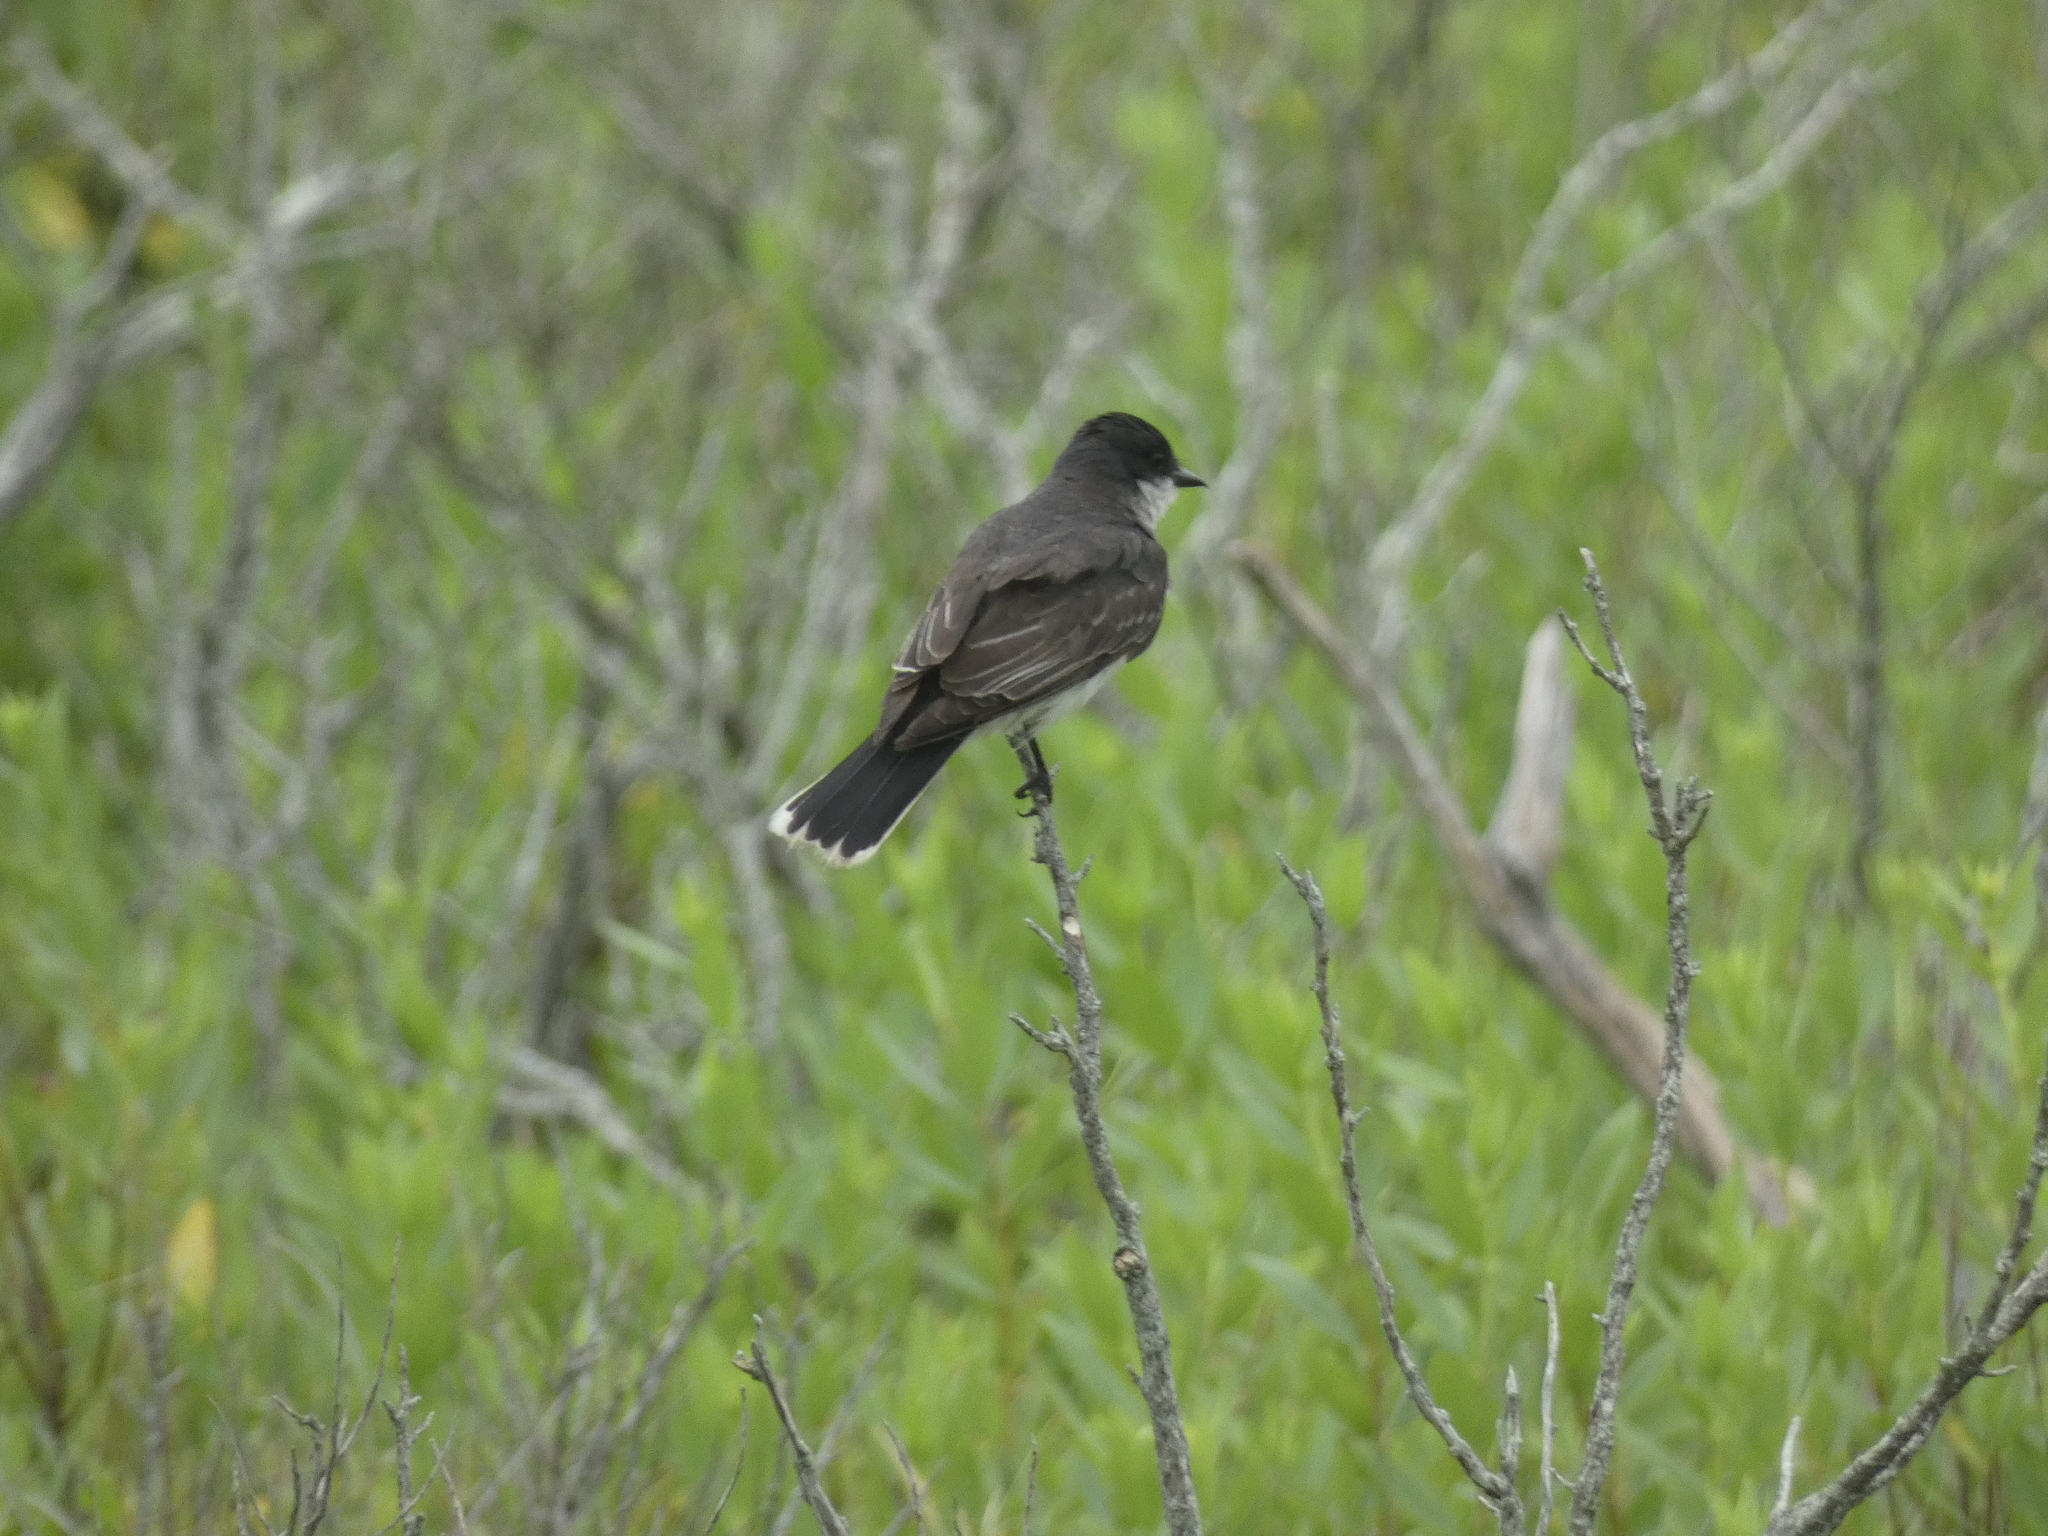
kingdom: Animalia
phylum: Chordata
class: Aves
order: Passeriformes
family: Tyrannidae
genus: Tyrannus
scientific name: Tyrannus tyrannus
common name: Eastern kingbird
